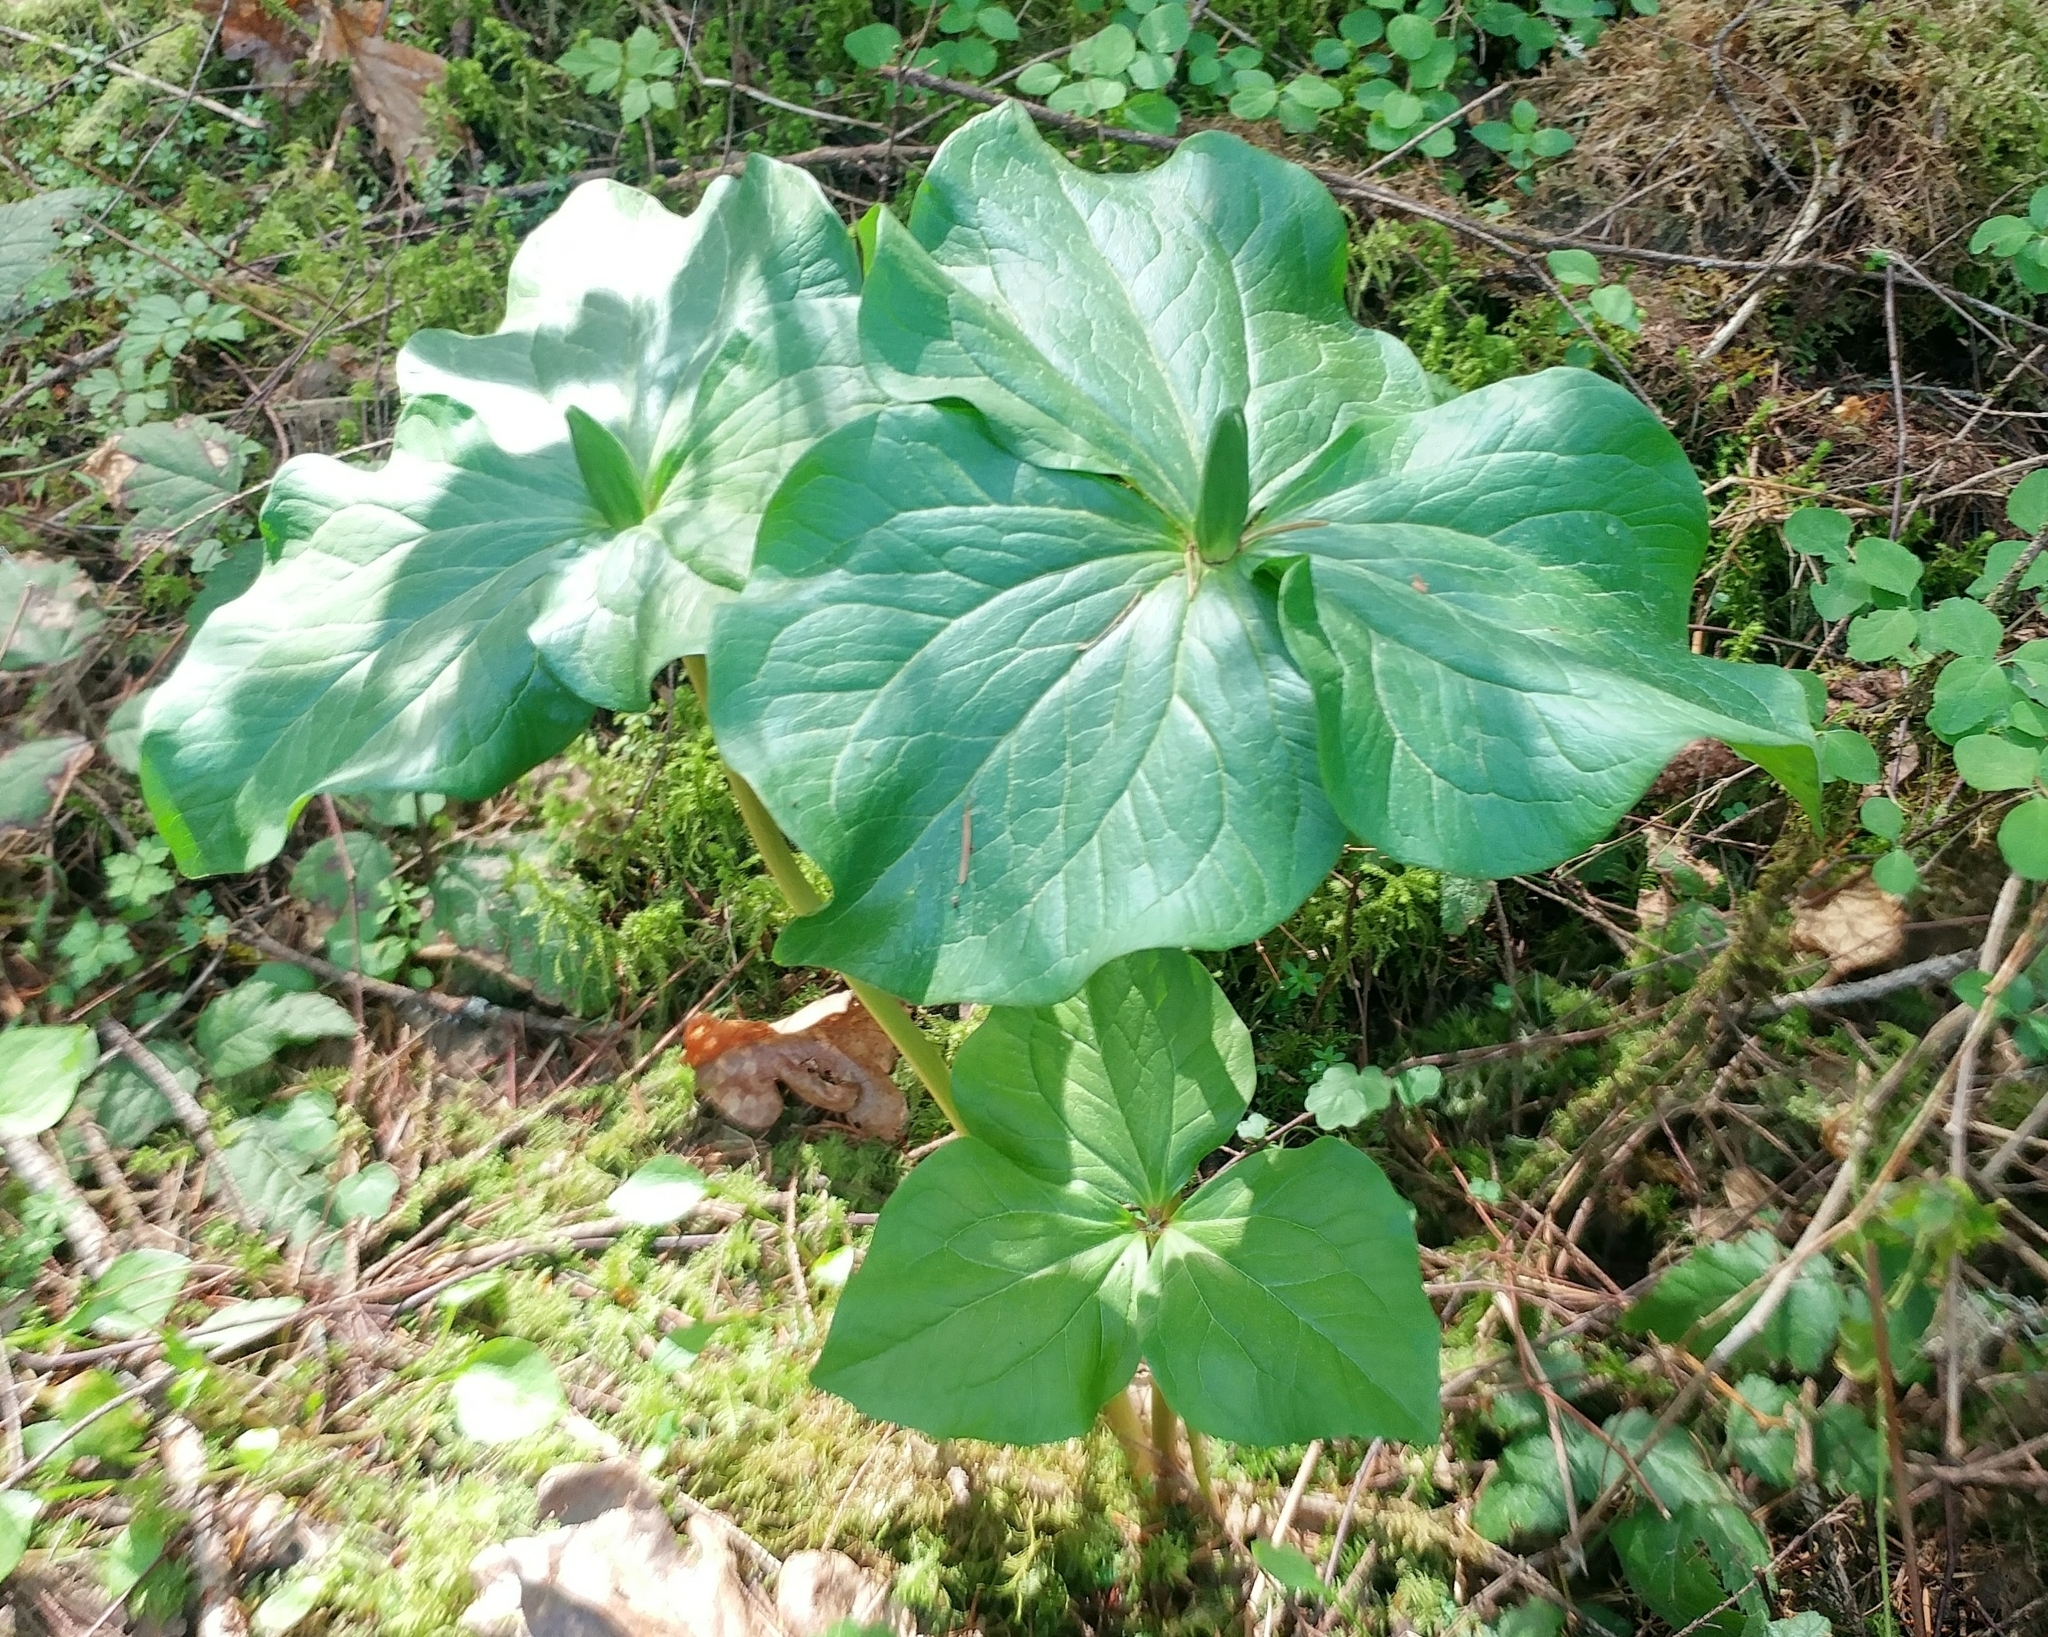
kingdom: Plantae
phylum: Tracheophyta
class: Liliopsida
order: Liliales
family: Melanthiaceae
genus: Trillium
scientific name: Trillium albidum
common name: Freeman's trillium
